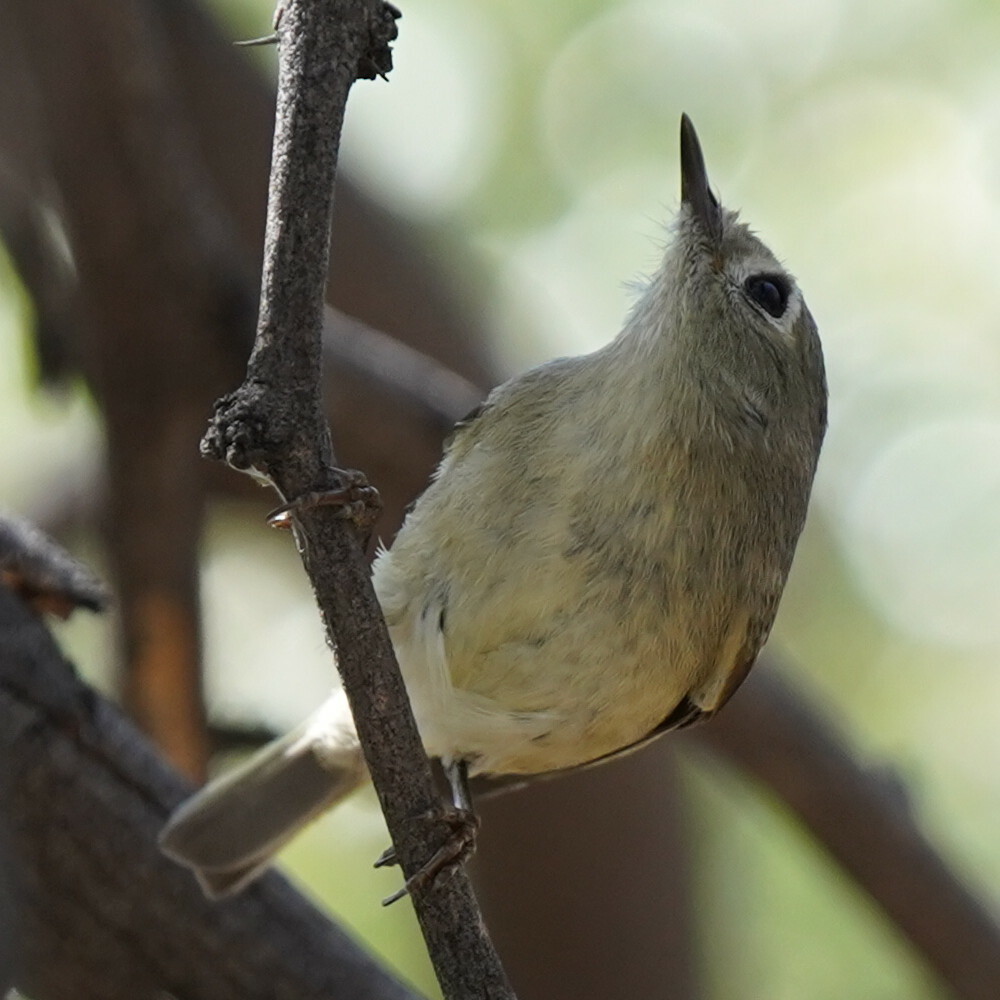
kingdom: Animalia
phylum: Chordata
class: Aves
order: Passeriformes
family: Regulidae
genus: Regulus
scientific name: Regulus calendula
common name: Ruby-crowned kinglet
